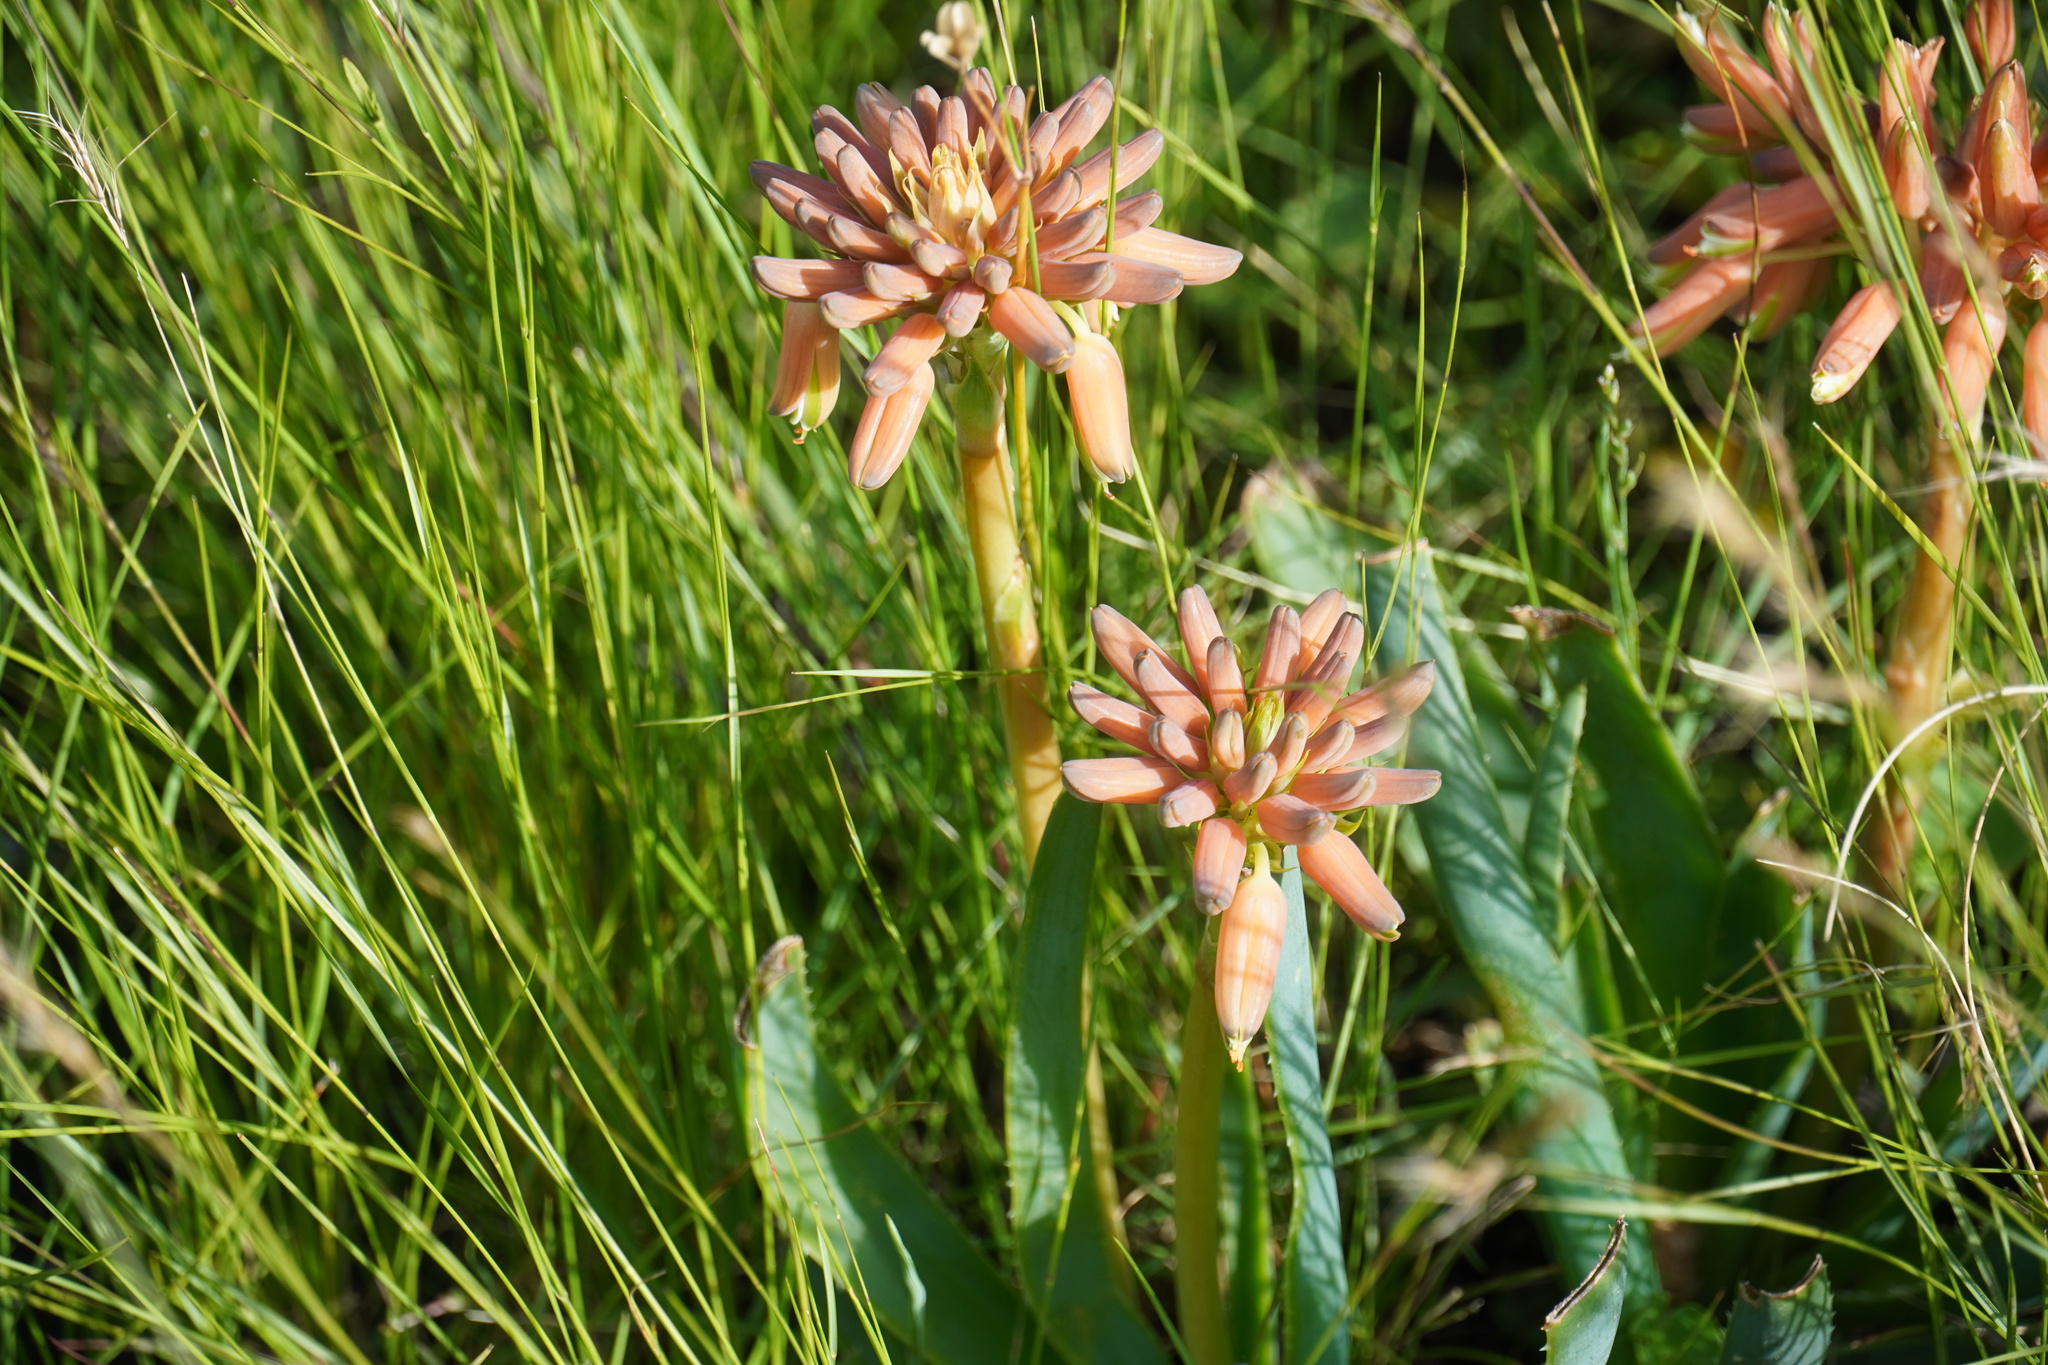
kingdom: Plantae
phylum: Tracheophyta
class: Liliopsida
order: Asparagales
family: Asphodelaceae
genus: Aloe
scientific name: Aloe ecklonis
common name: Ecklon's aloe
